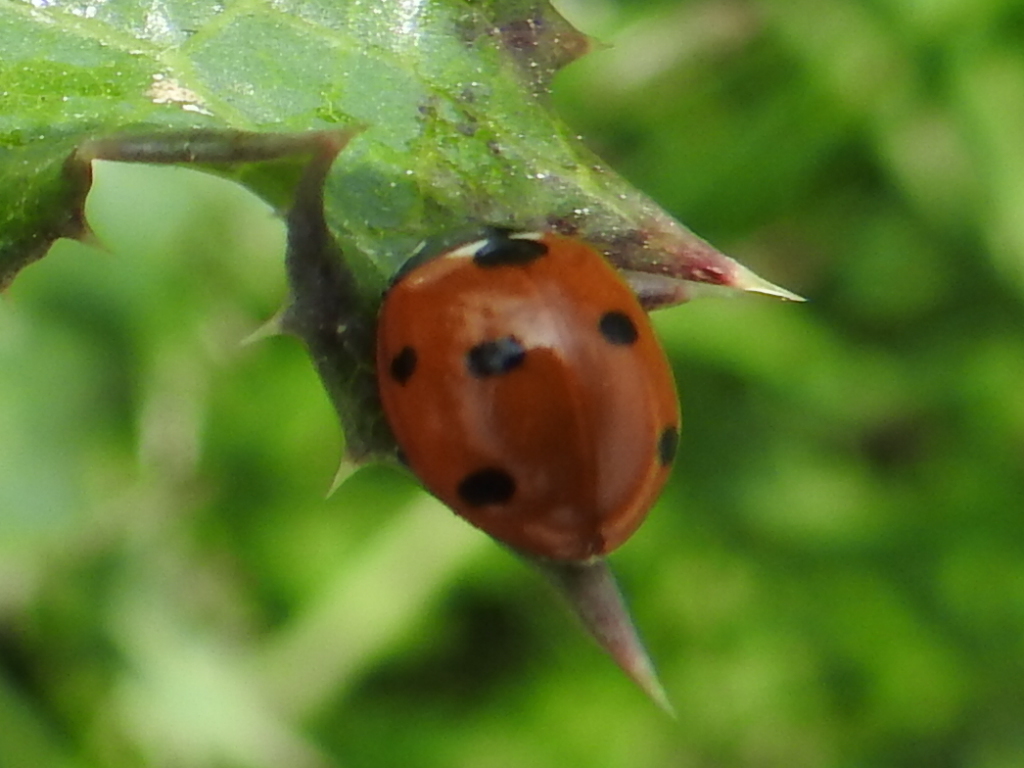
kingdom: Animalia
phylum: Arthropoda
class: Insecta
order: Coleoptera
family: Coccinellidae
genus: Coccinella
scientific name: Coccinella septempunctata
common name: Sevenspotted lady beetle
